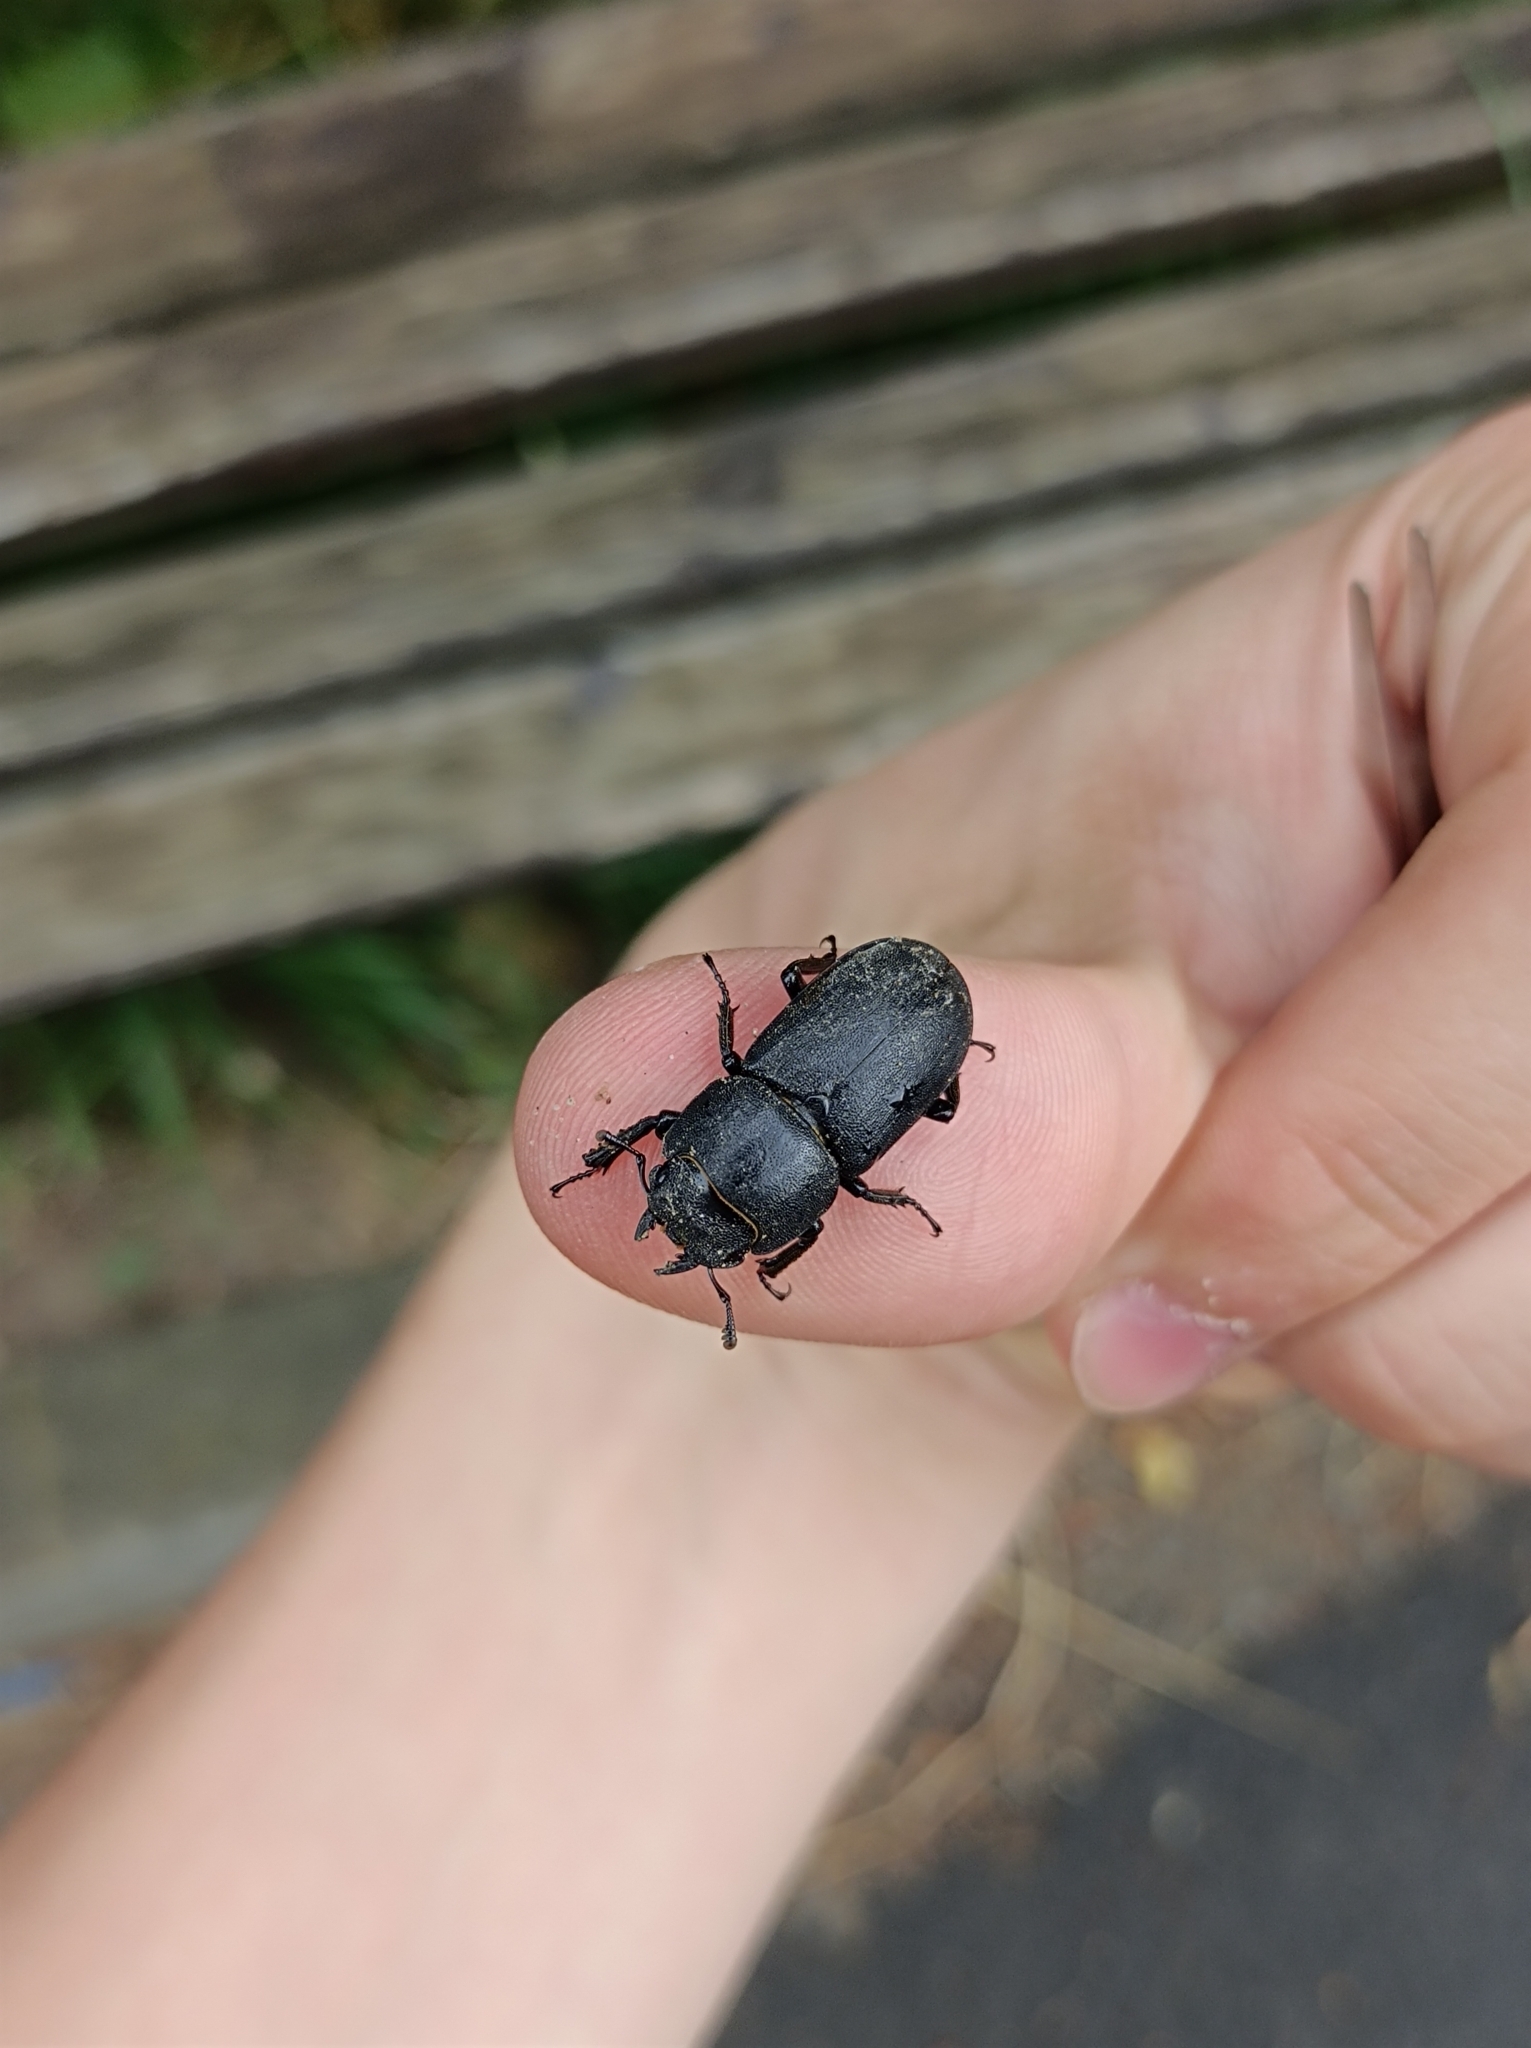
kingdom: Animalia
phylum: Arthropoda
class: Insecta
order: Coleoptera
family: Lucanidae
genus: Dorcus
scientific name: Dorcus parallelipipedus
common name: Lesser stag beetle
